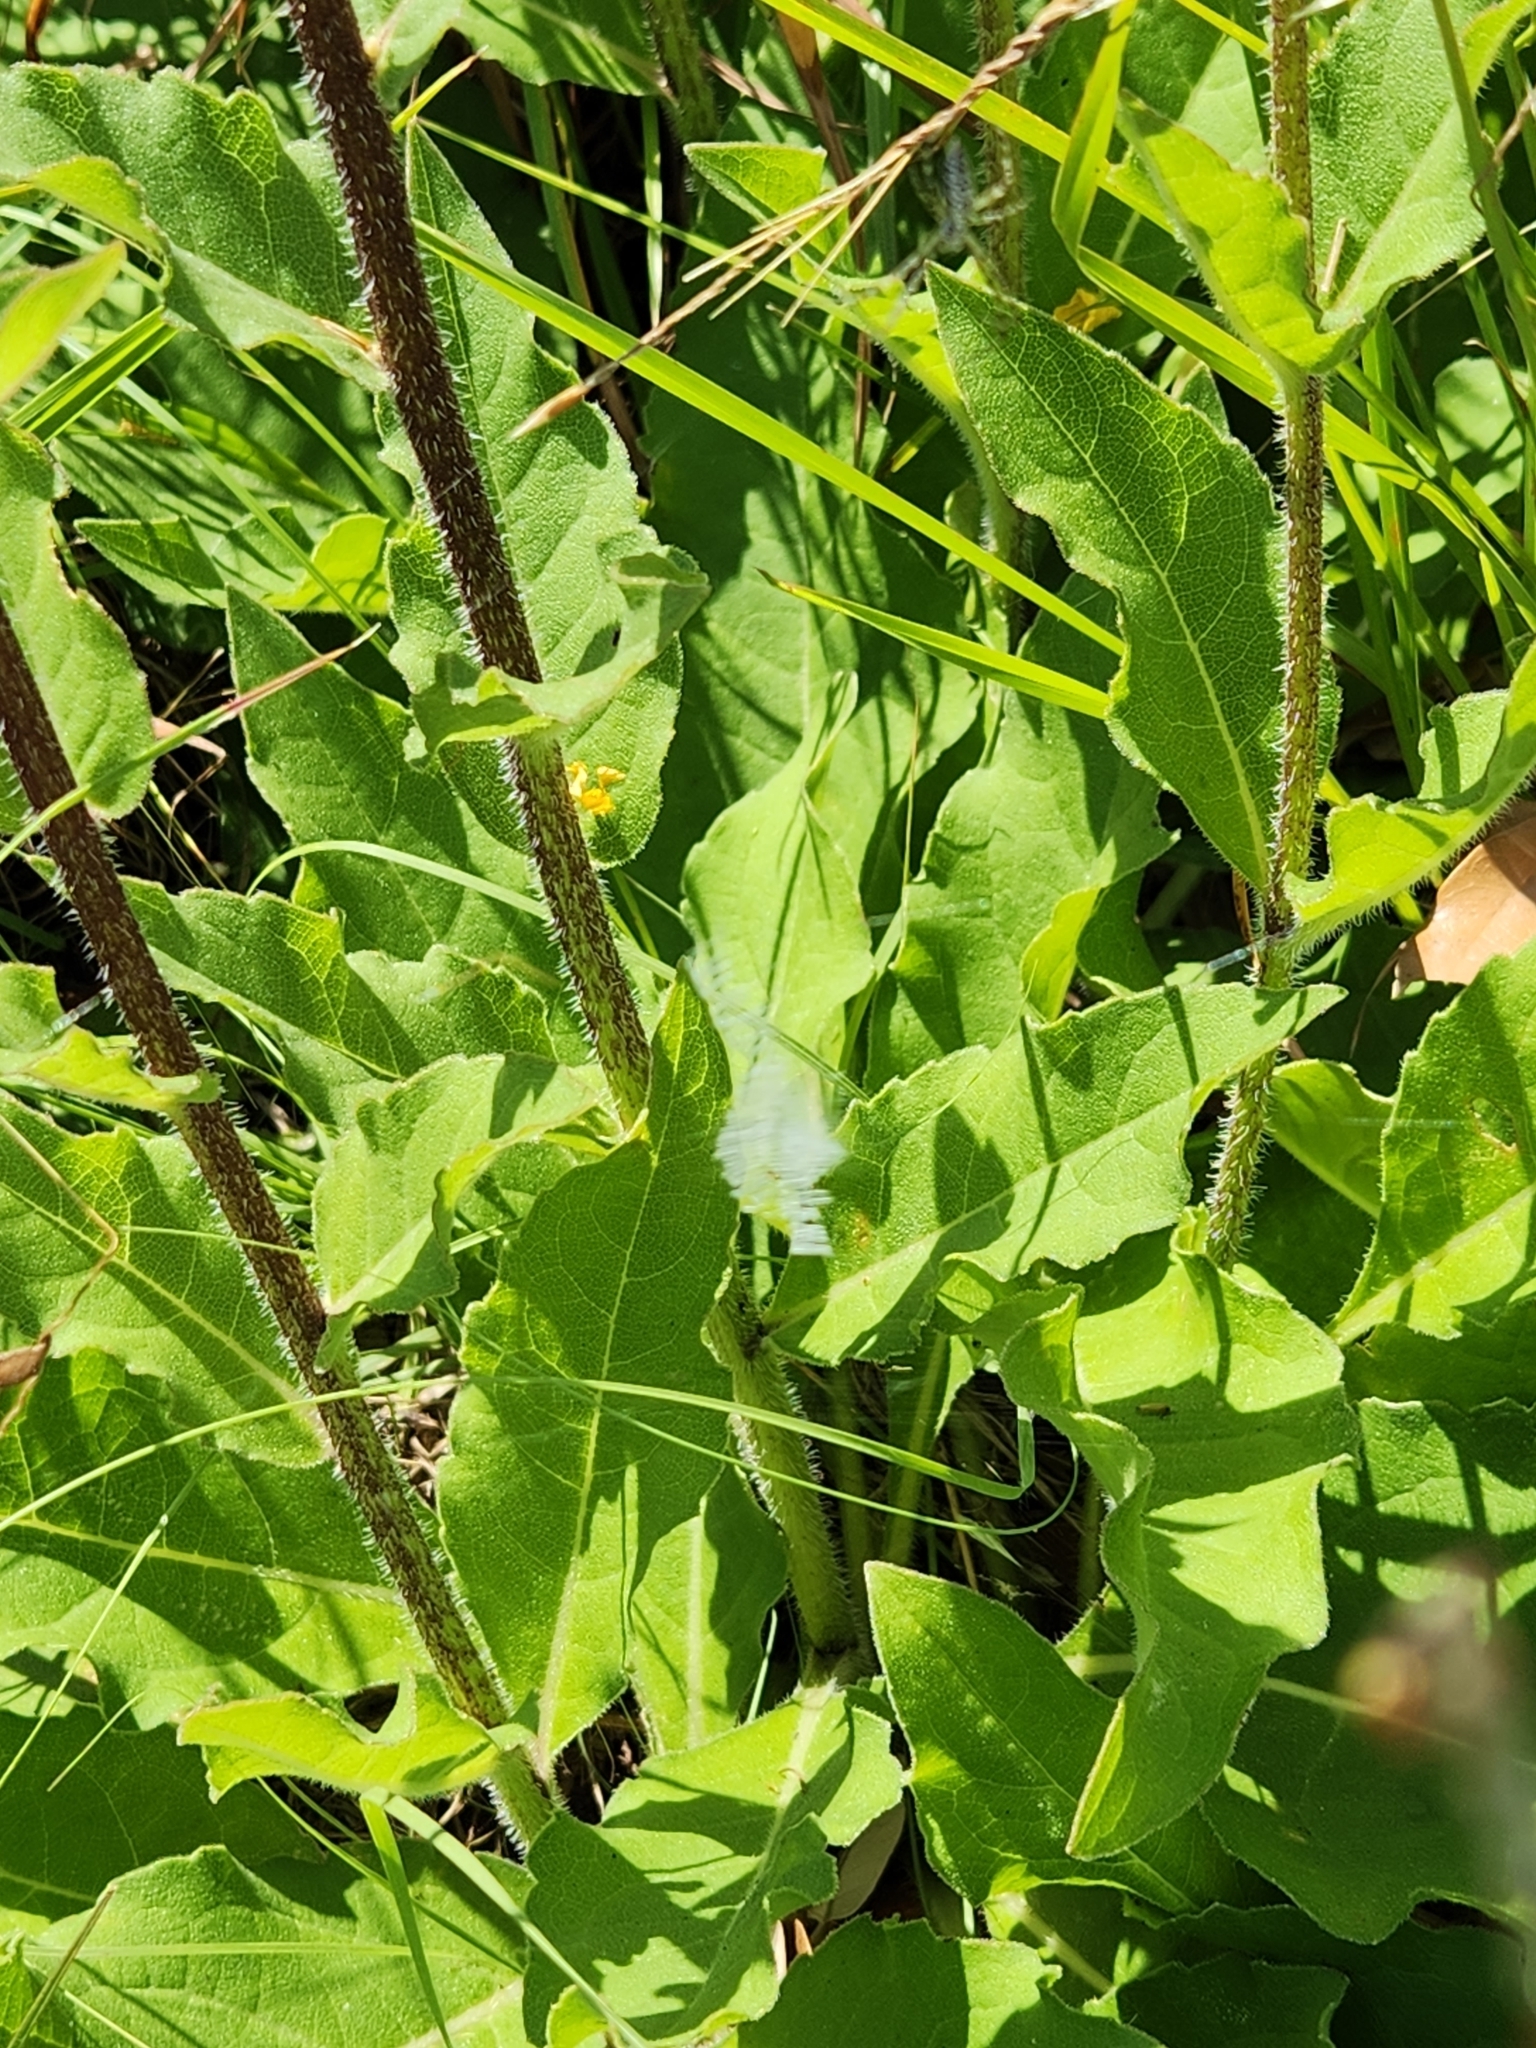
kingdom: Animalia
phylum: Arthropoda
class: Arachnida
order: Araneae
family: Araneidae
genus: Argiope
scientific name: Argiope aurantia
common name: Orb weavers
